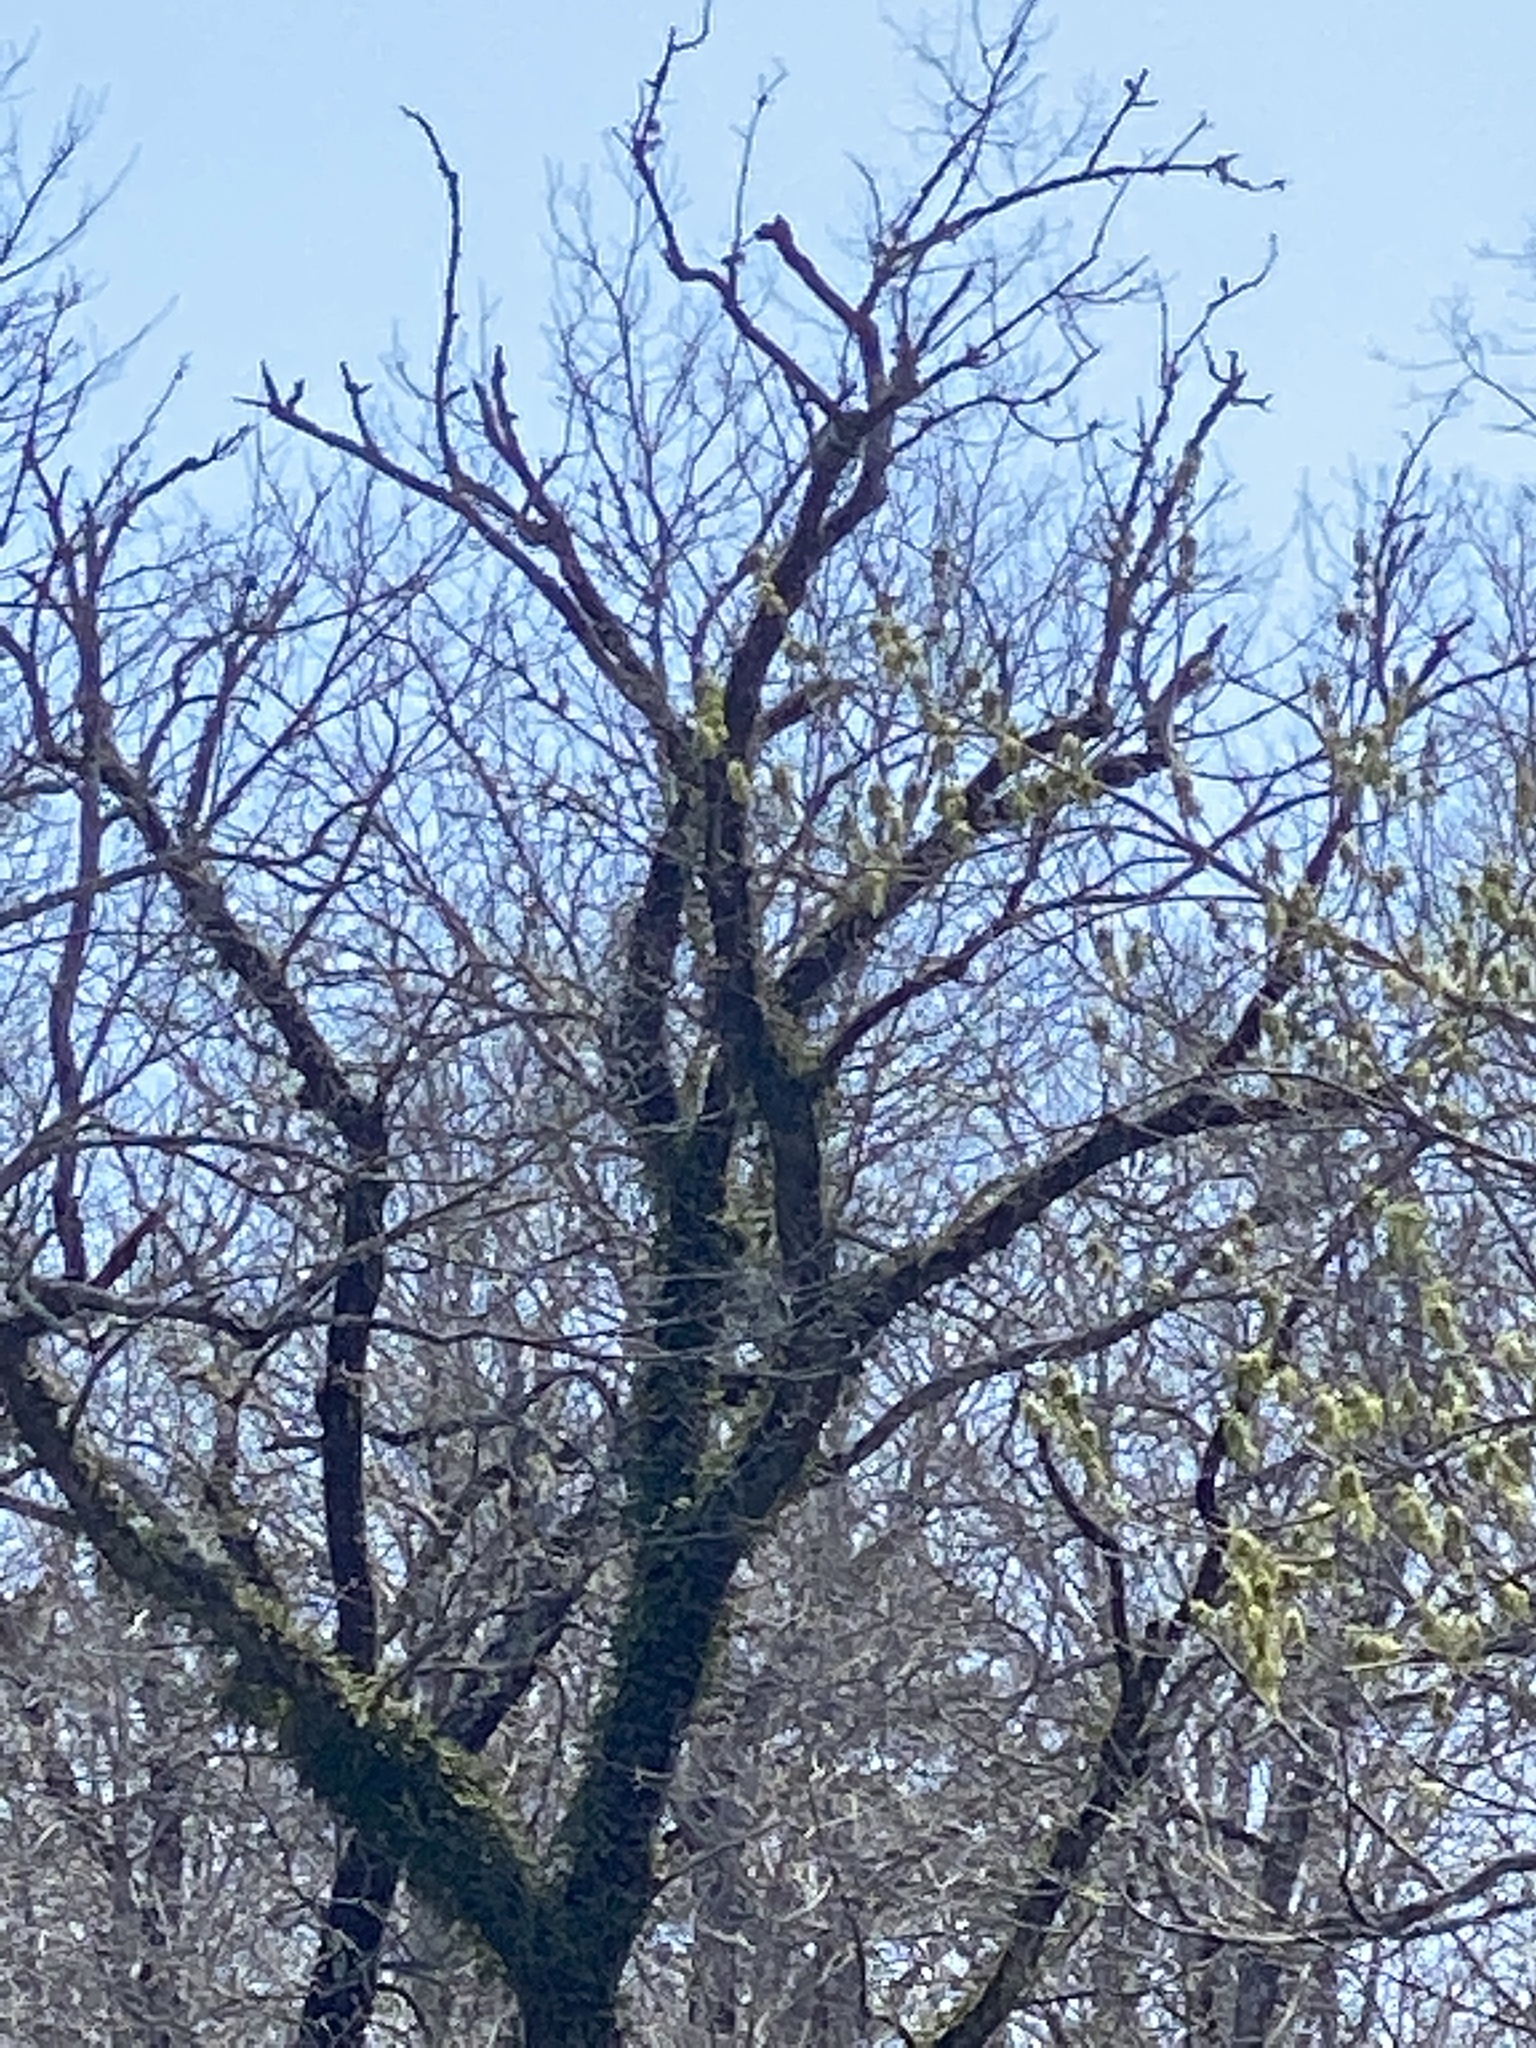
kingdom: Plantae
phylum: Tracheophyta
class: Polypodiopsida
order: Polypodiales
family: Polypodiaceae
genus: Pleopeltis
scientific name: Pleopeltis michauxiana
